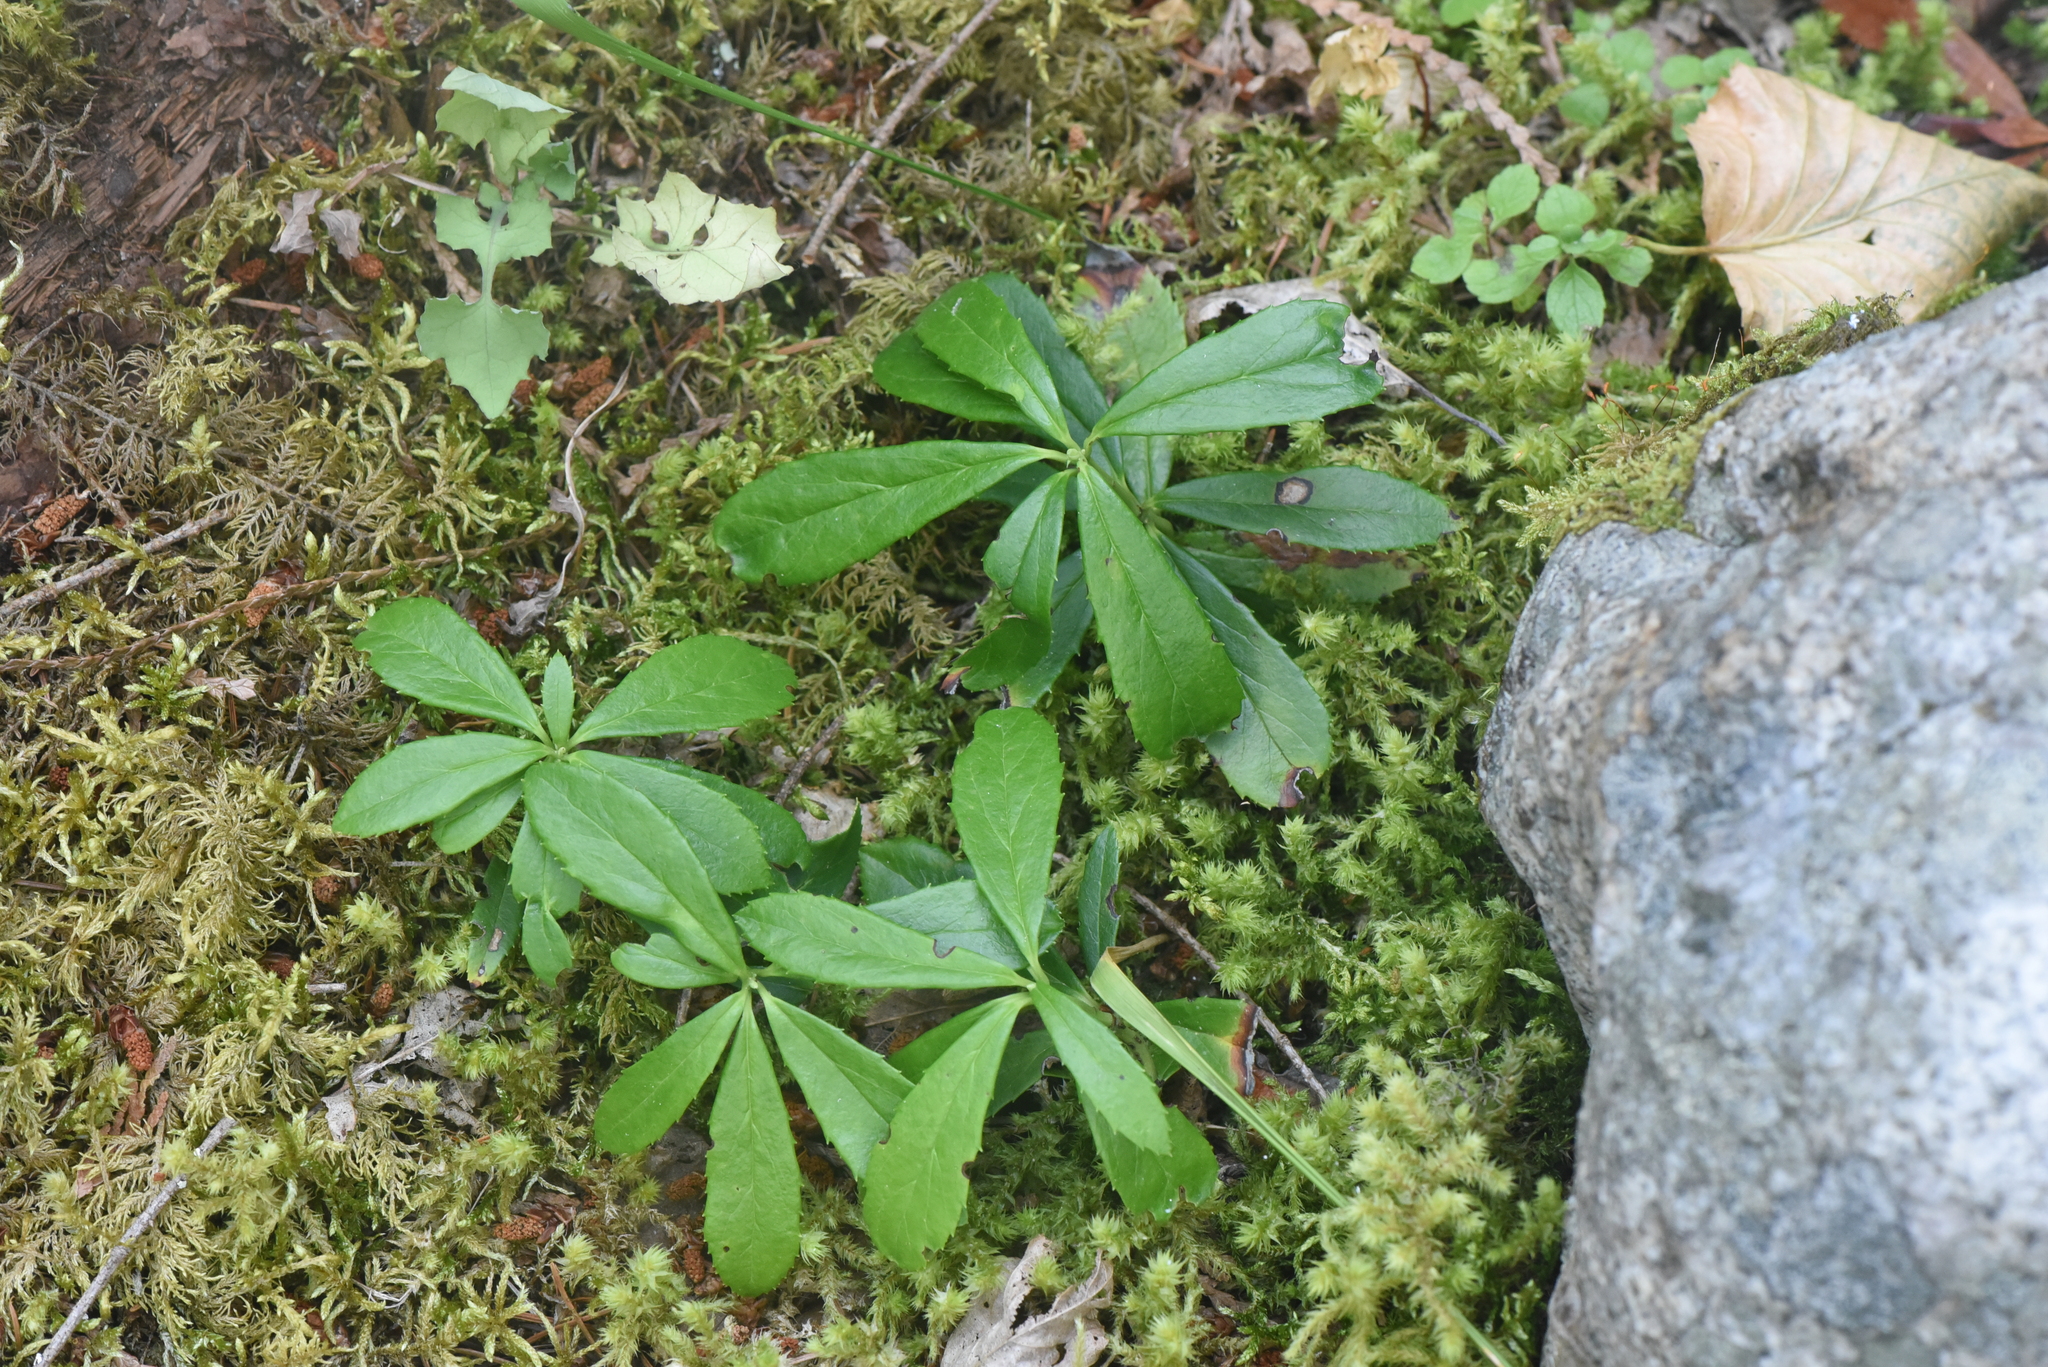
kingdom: Plantae
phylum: Tracheophyta
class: Magnoliopsida
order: Ericales
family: Ericaceae
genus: Chimaphila
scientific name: Chimaphila umbellata
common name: Pipsissewa
